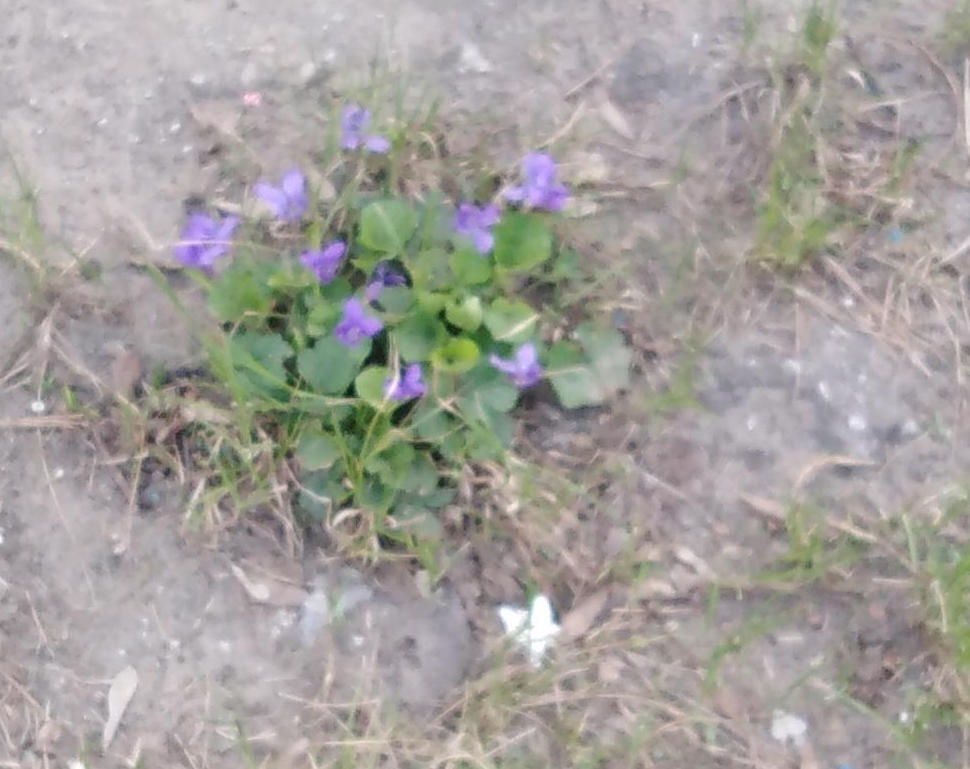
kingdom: Plantae
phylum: Tracheophyta
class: Magnoliopsida
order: Malpighiales
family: Violaceae
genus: Viola
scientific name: Viola odorata
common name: Sweet violet
